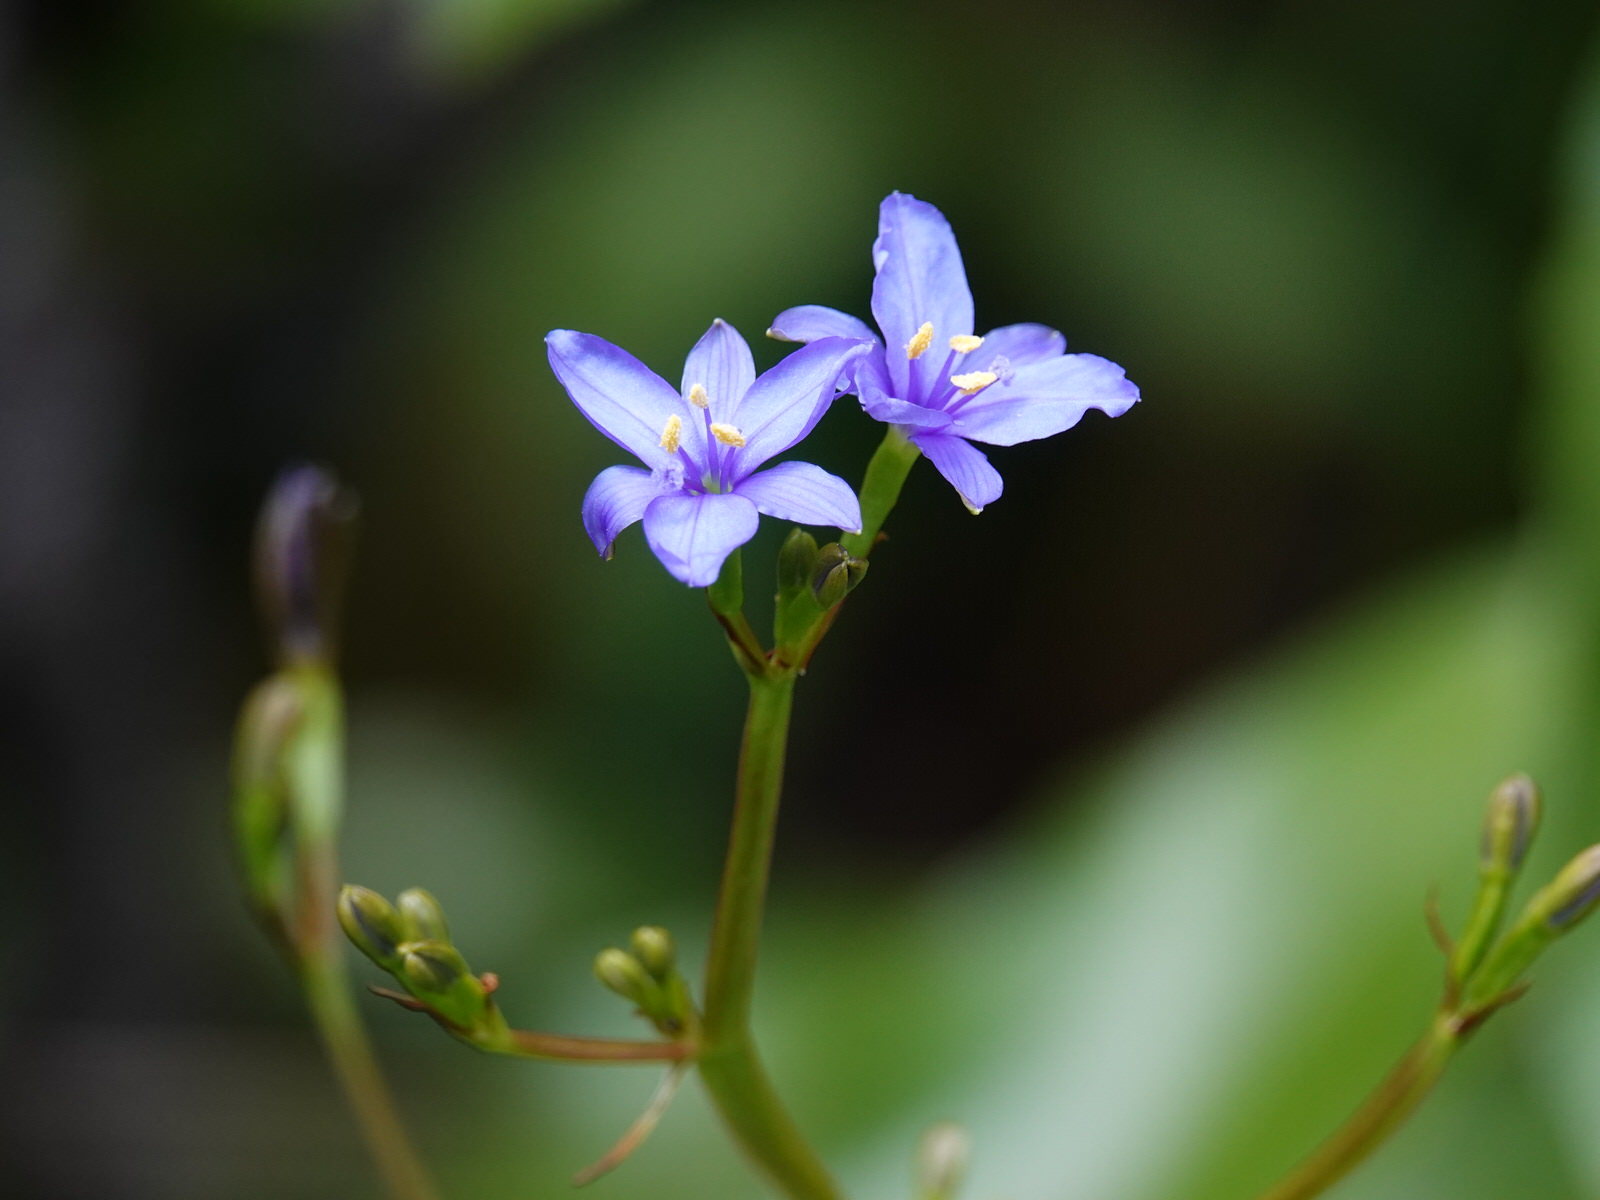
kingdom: Plantae
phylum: Tracheophyta
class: Liliopsida
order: Asparagales
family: Iridaceae
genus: Aristea
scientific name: Aristea ecklonii
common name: Blue corn-lily
